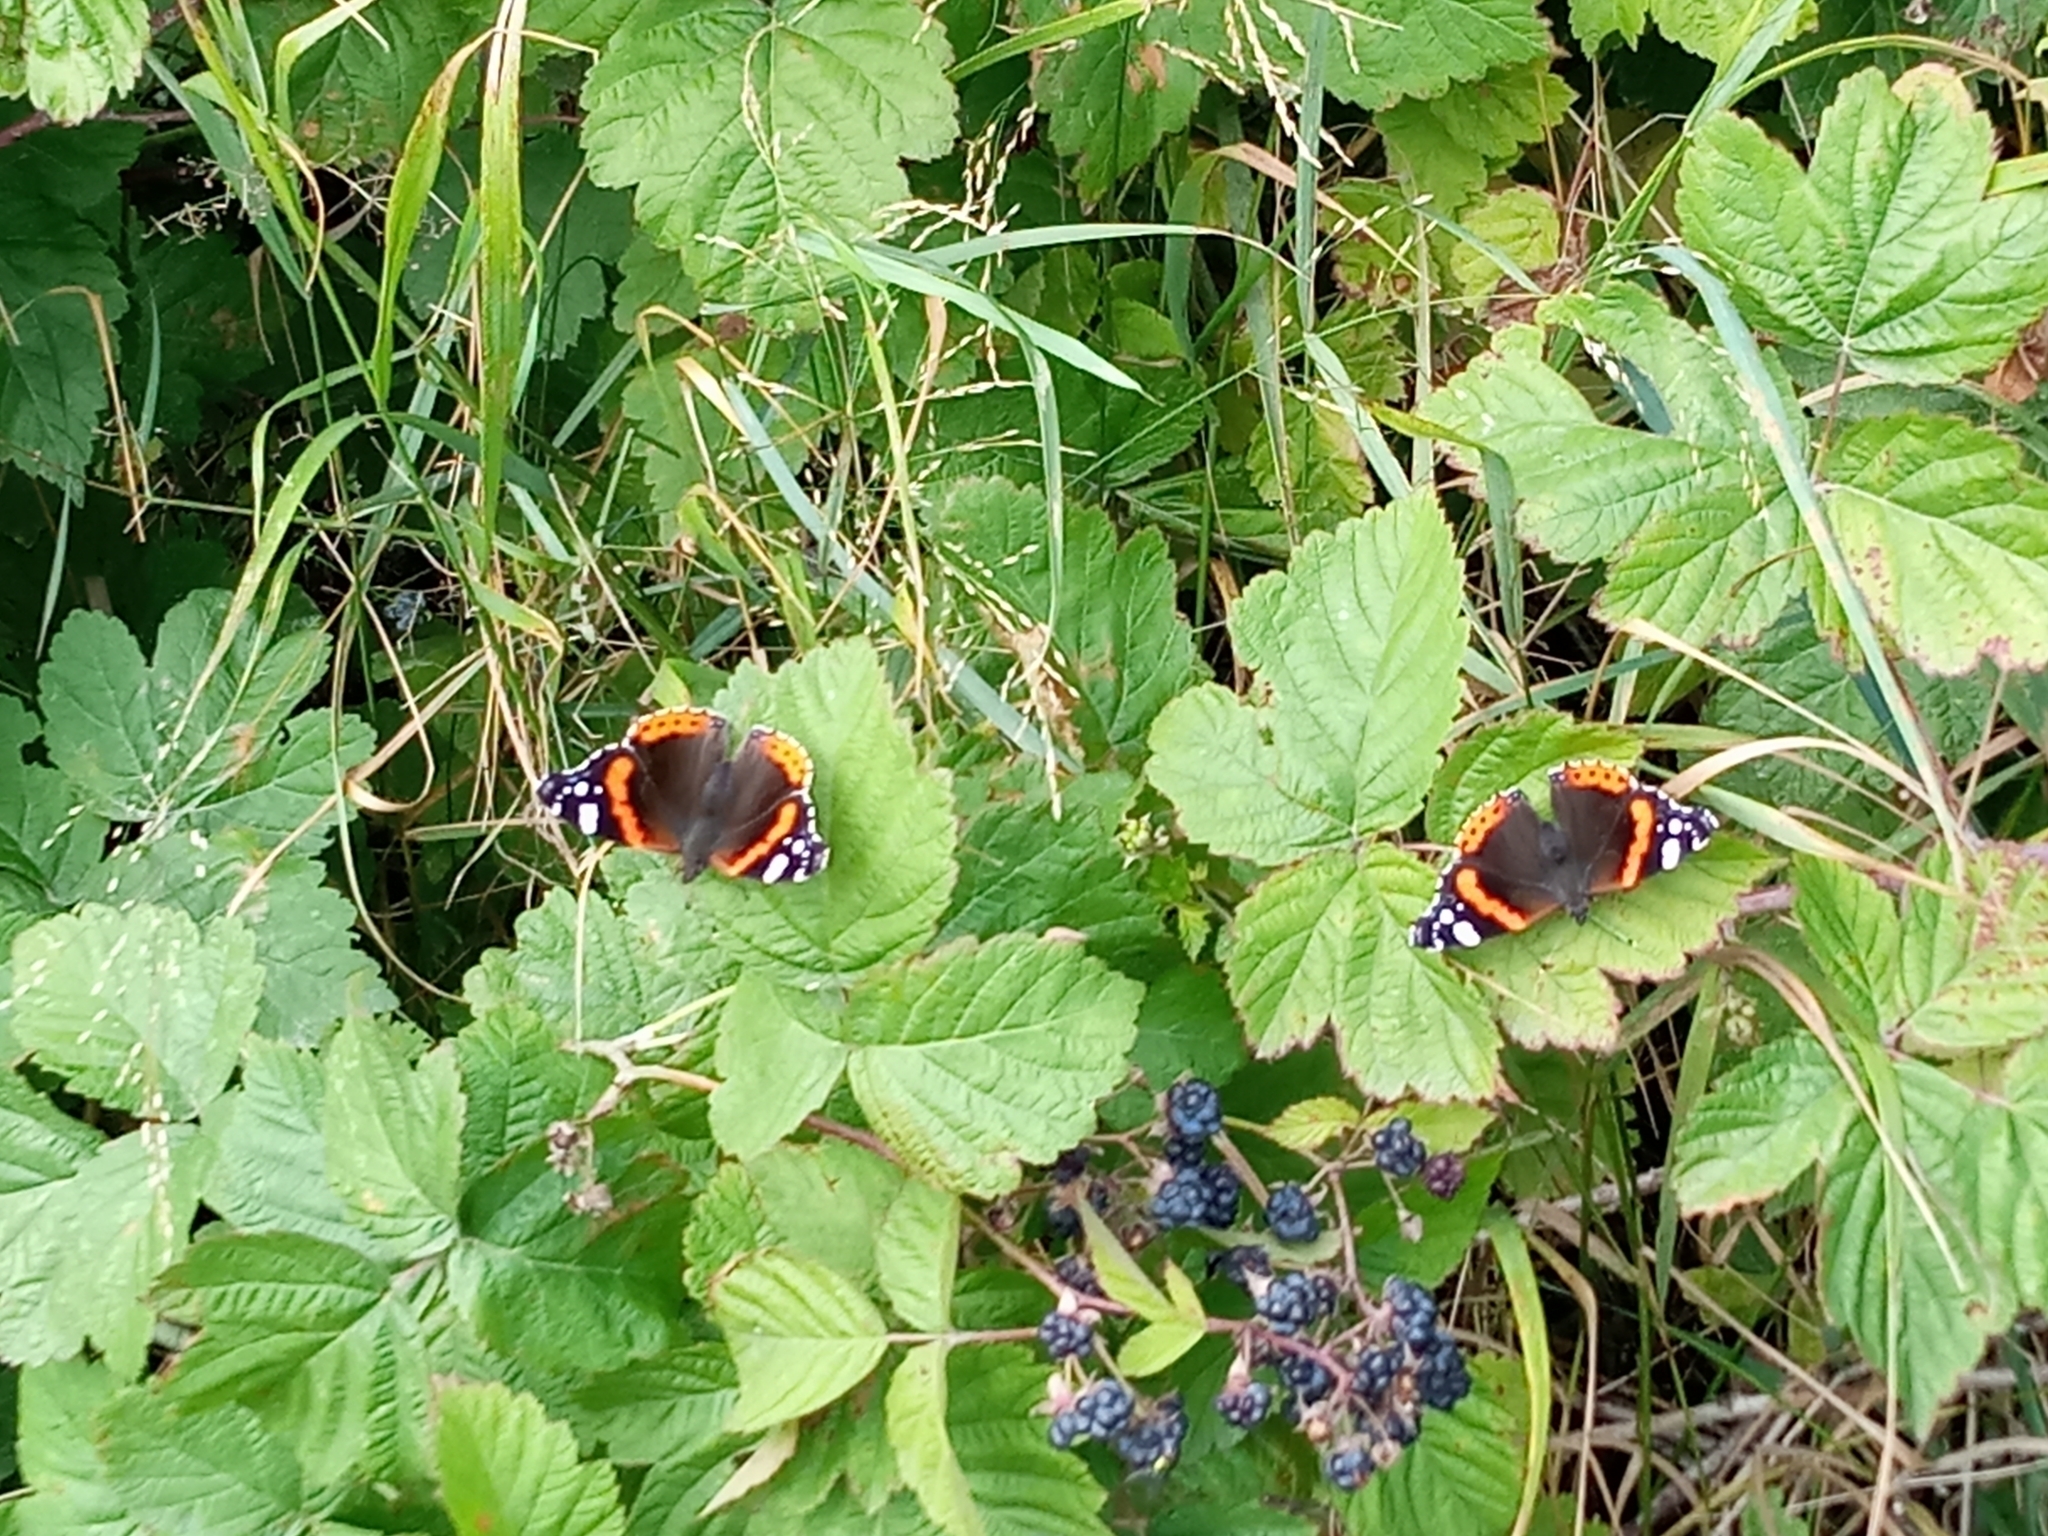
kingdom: Animalia
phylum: Arthropoda
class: Insecta
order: Lepidoptera
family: Nymphalidae
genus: Vanessa
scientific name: Vanessa atalanta
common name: Red admiral
